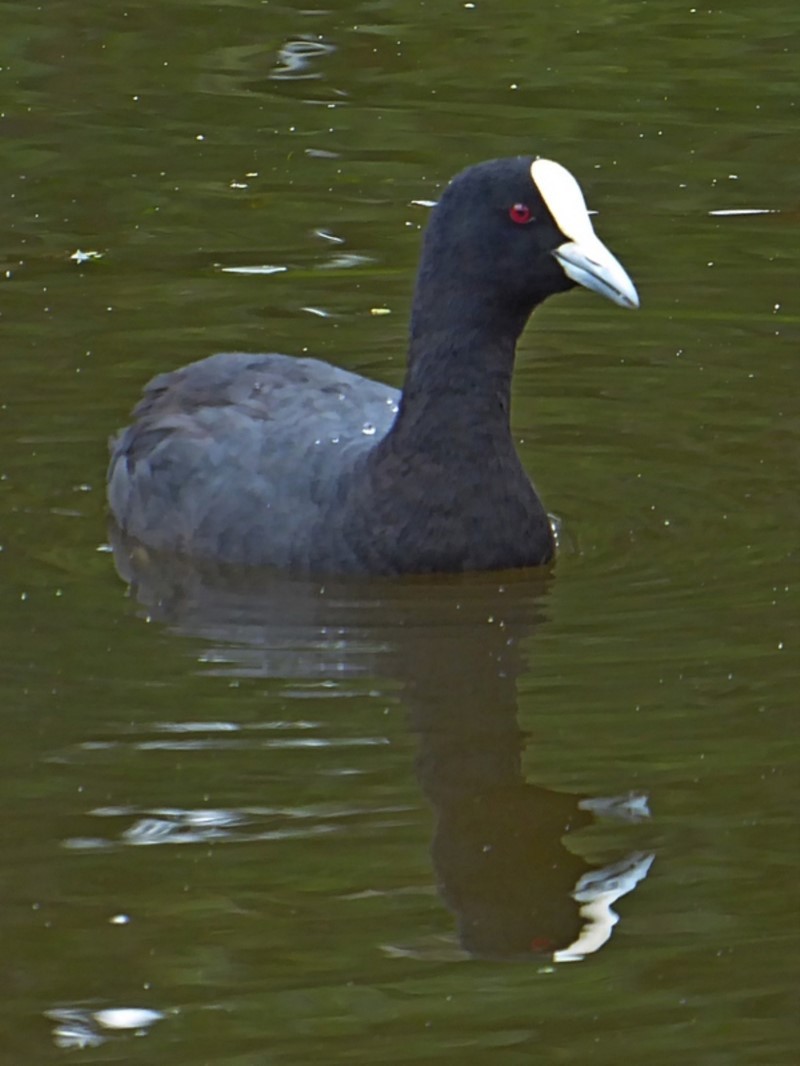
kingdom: Animalia
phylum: Chordata
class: Aves
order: Gruiformes
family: Rallidae
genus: Fulica
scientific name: Fulica atra
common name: Eurasian coot
